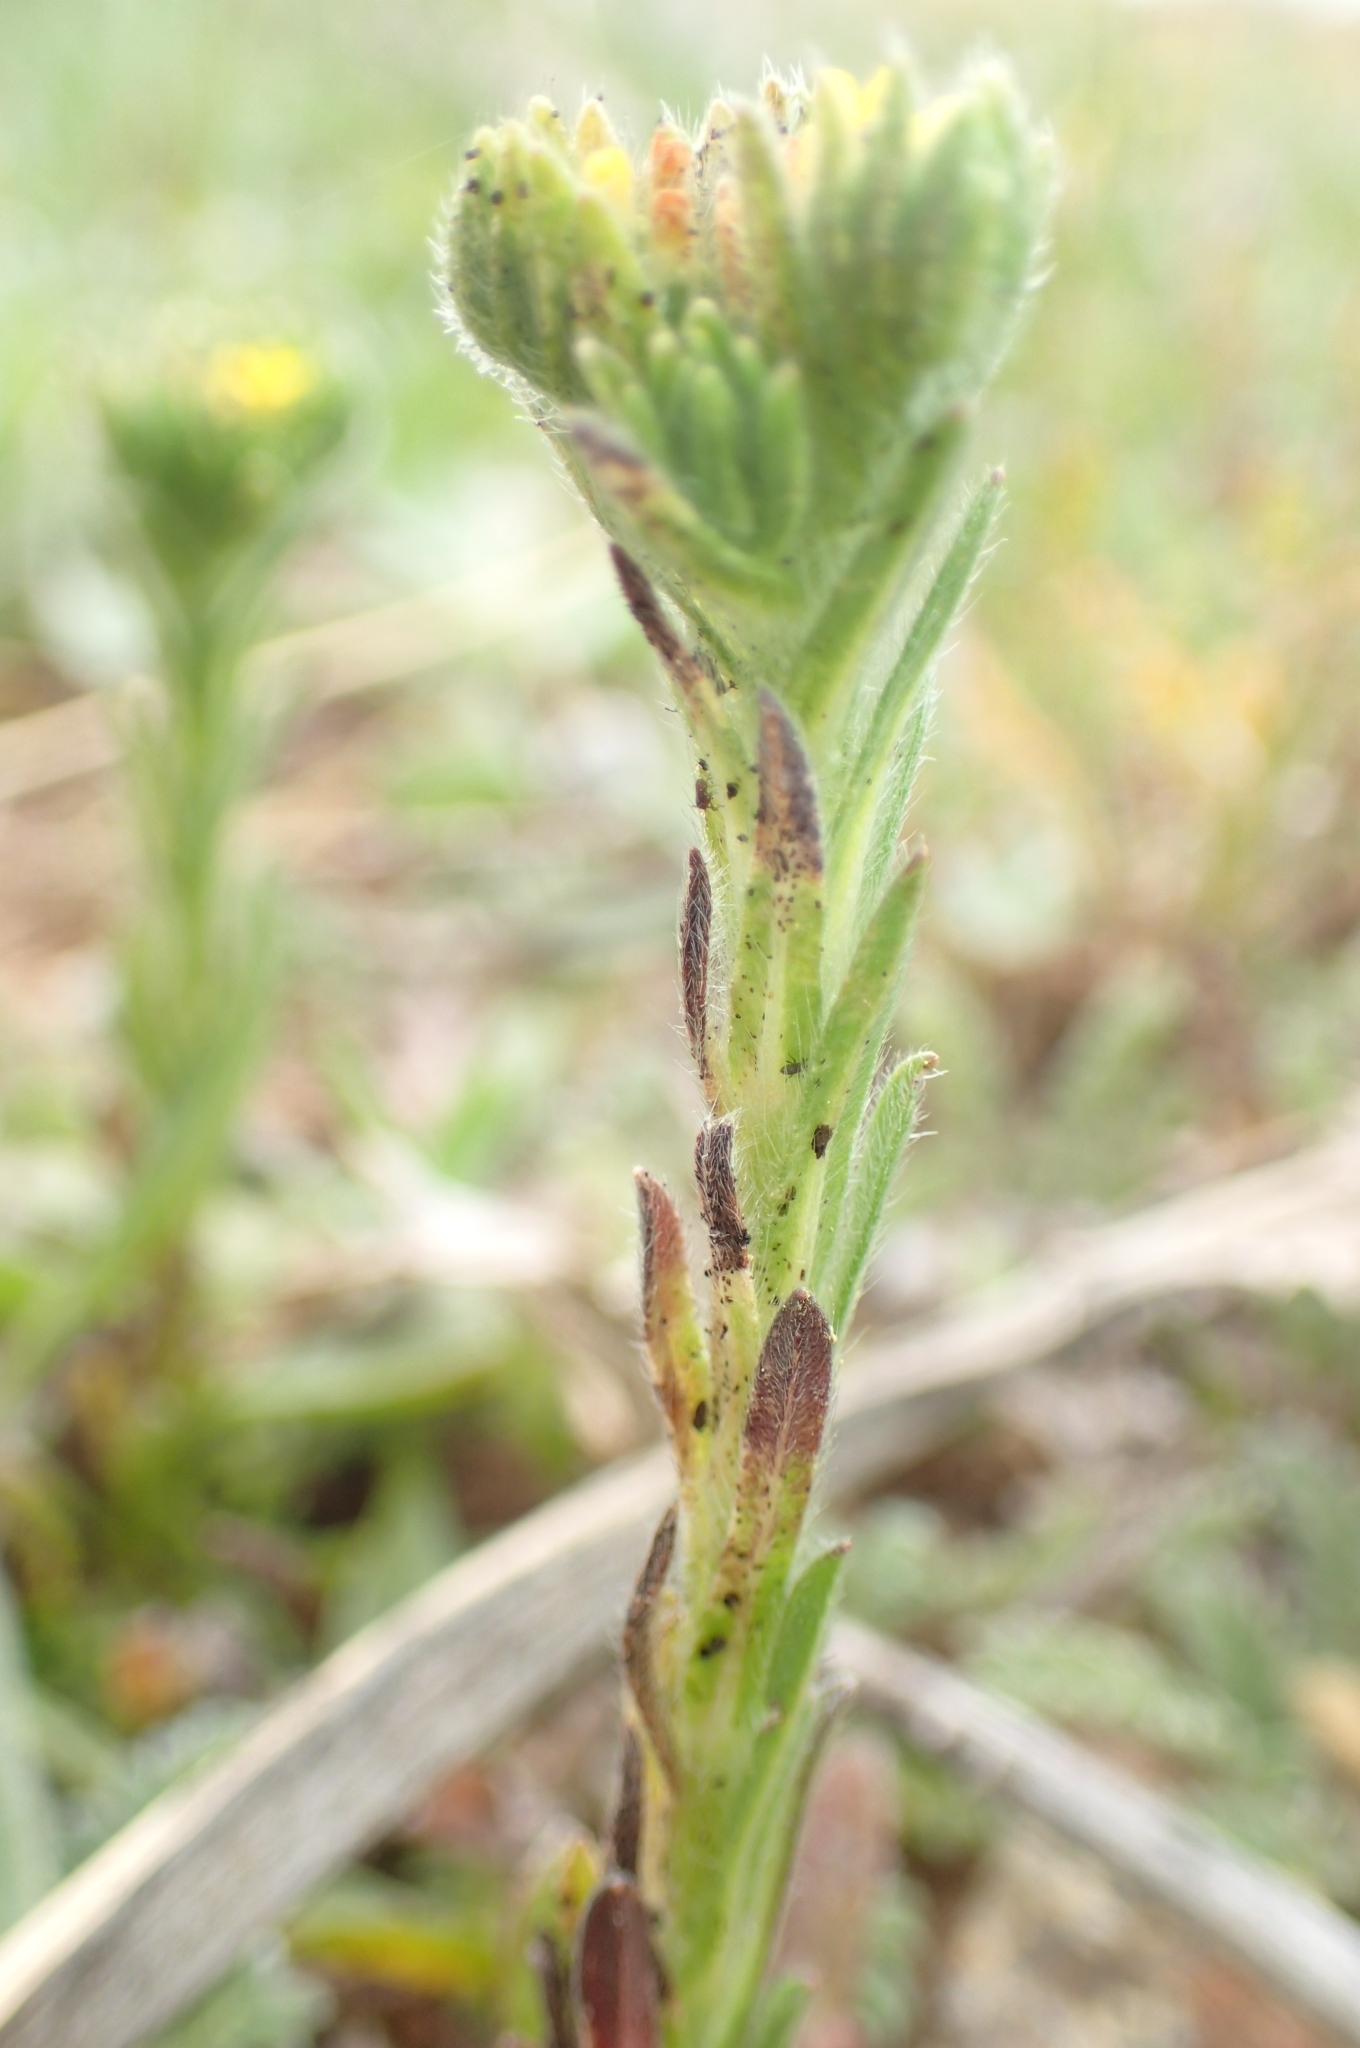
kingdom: Plantae
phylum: Tracheophyta
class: Magnoliopsida
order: Boraginales
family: Boraginaceae
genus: Neatostema
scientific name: Neatostema apulum
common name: Hairy sheepweed
